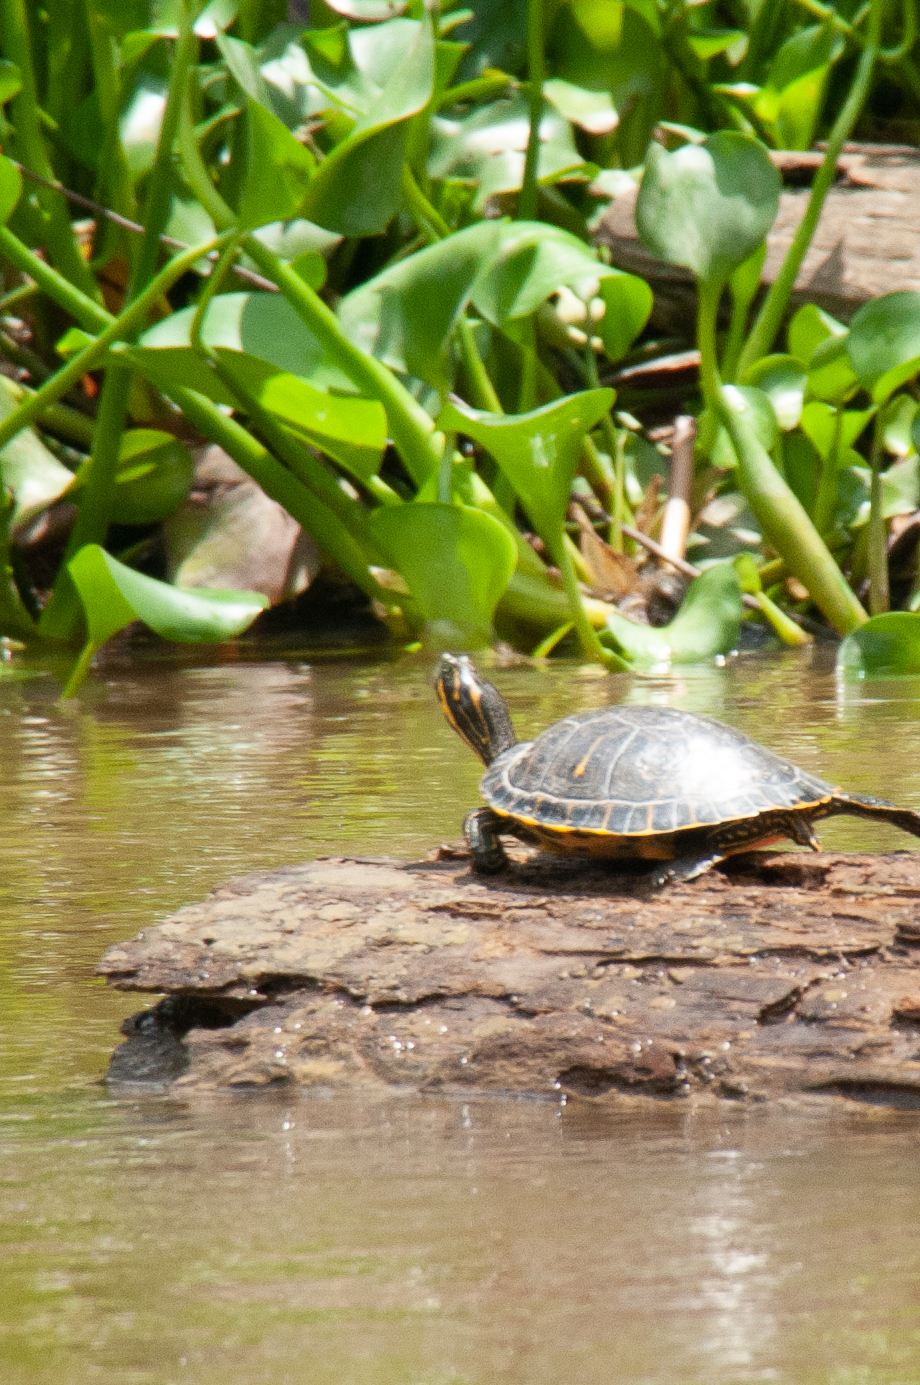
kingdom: Animalia
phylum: Chordata
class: Testudines
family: Emydidae
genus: Pseudemys
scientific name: Pseudemys concinna
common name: Eastern river cooter
